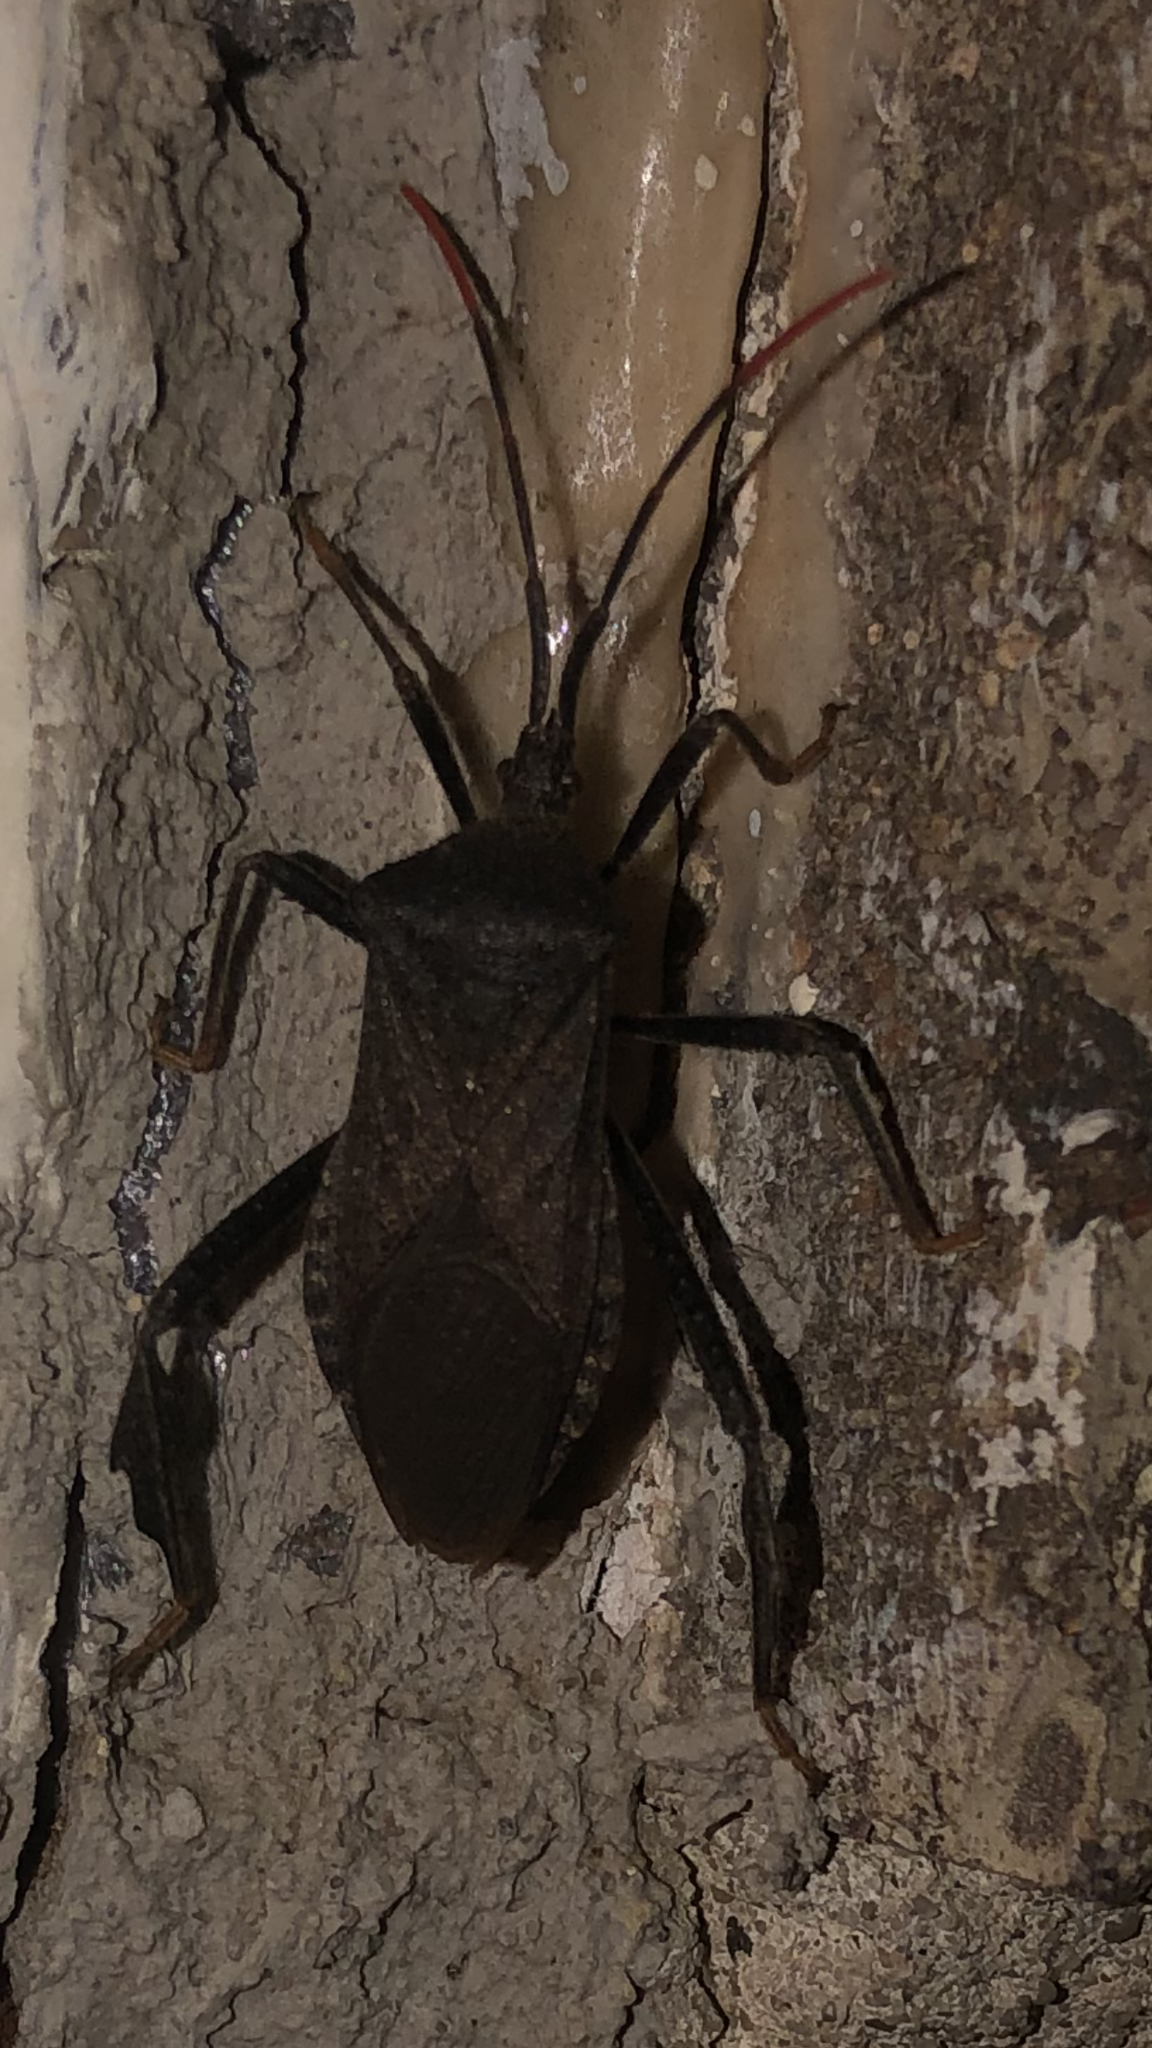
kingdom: Animalia
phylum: Arthropoda
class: Insecta
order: Hemiptera
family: Coreidae
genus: Acanthocephala
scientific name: Acanthocephala terminalis
